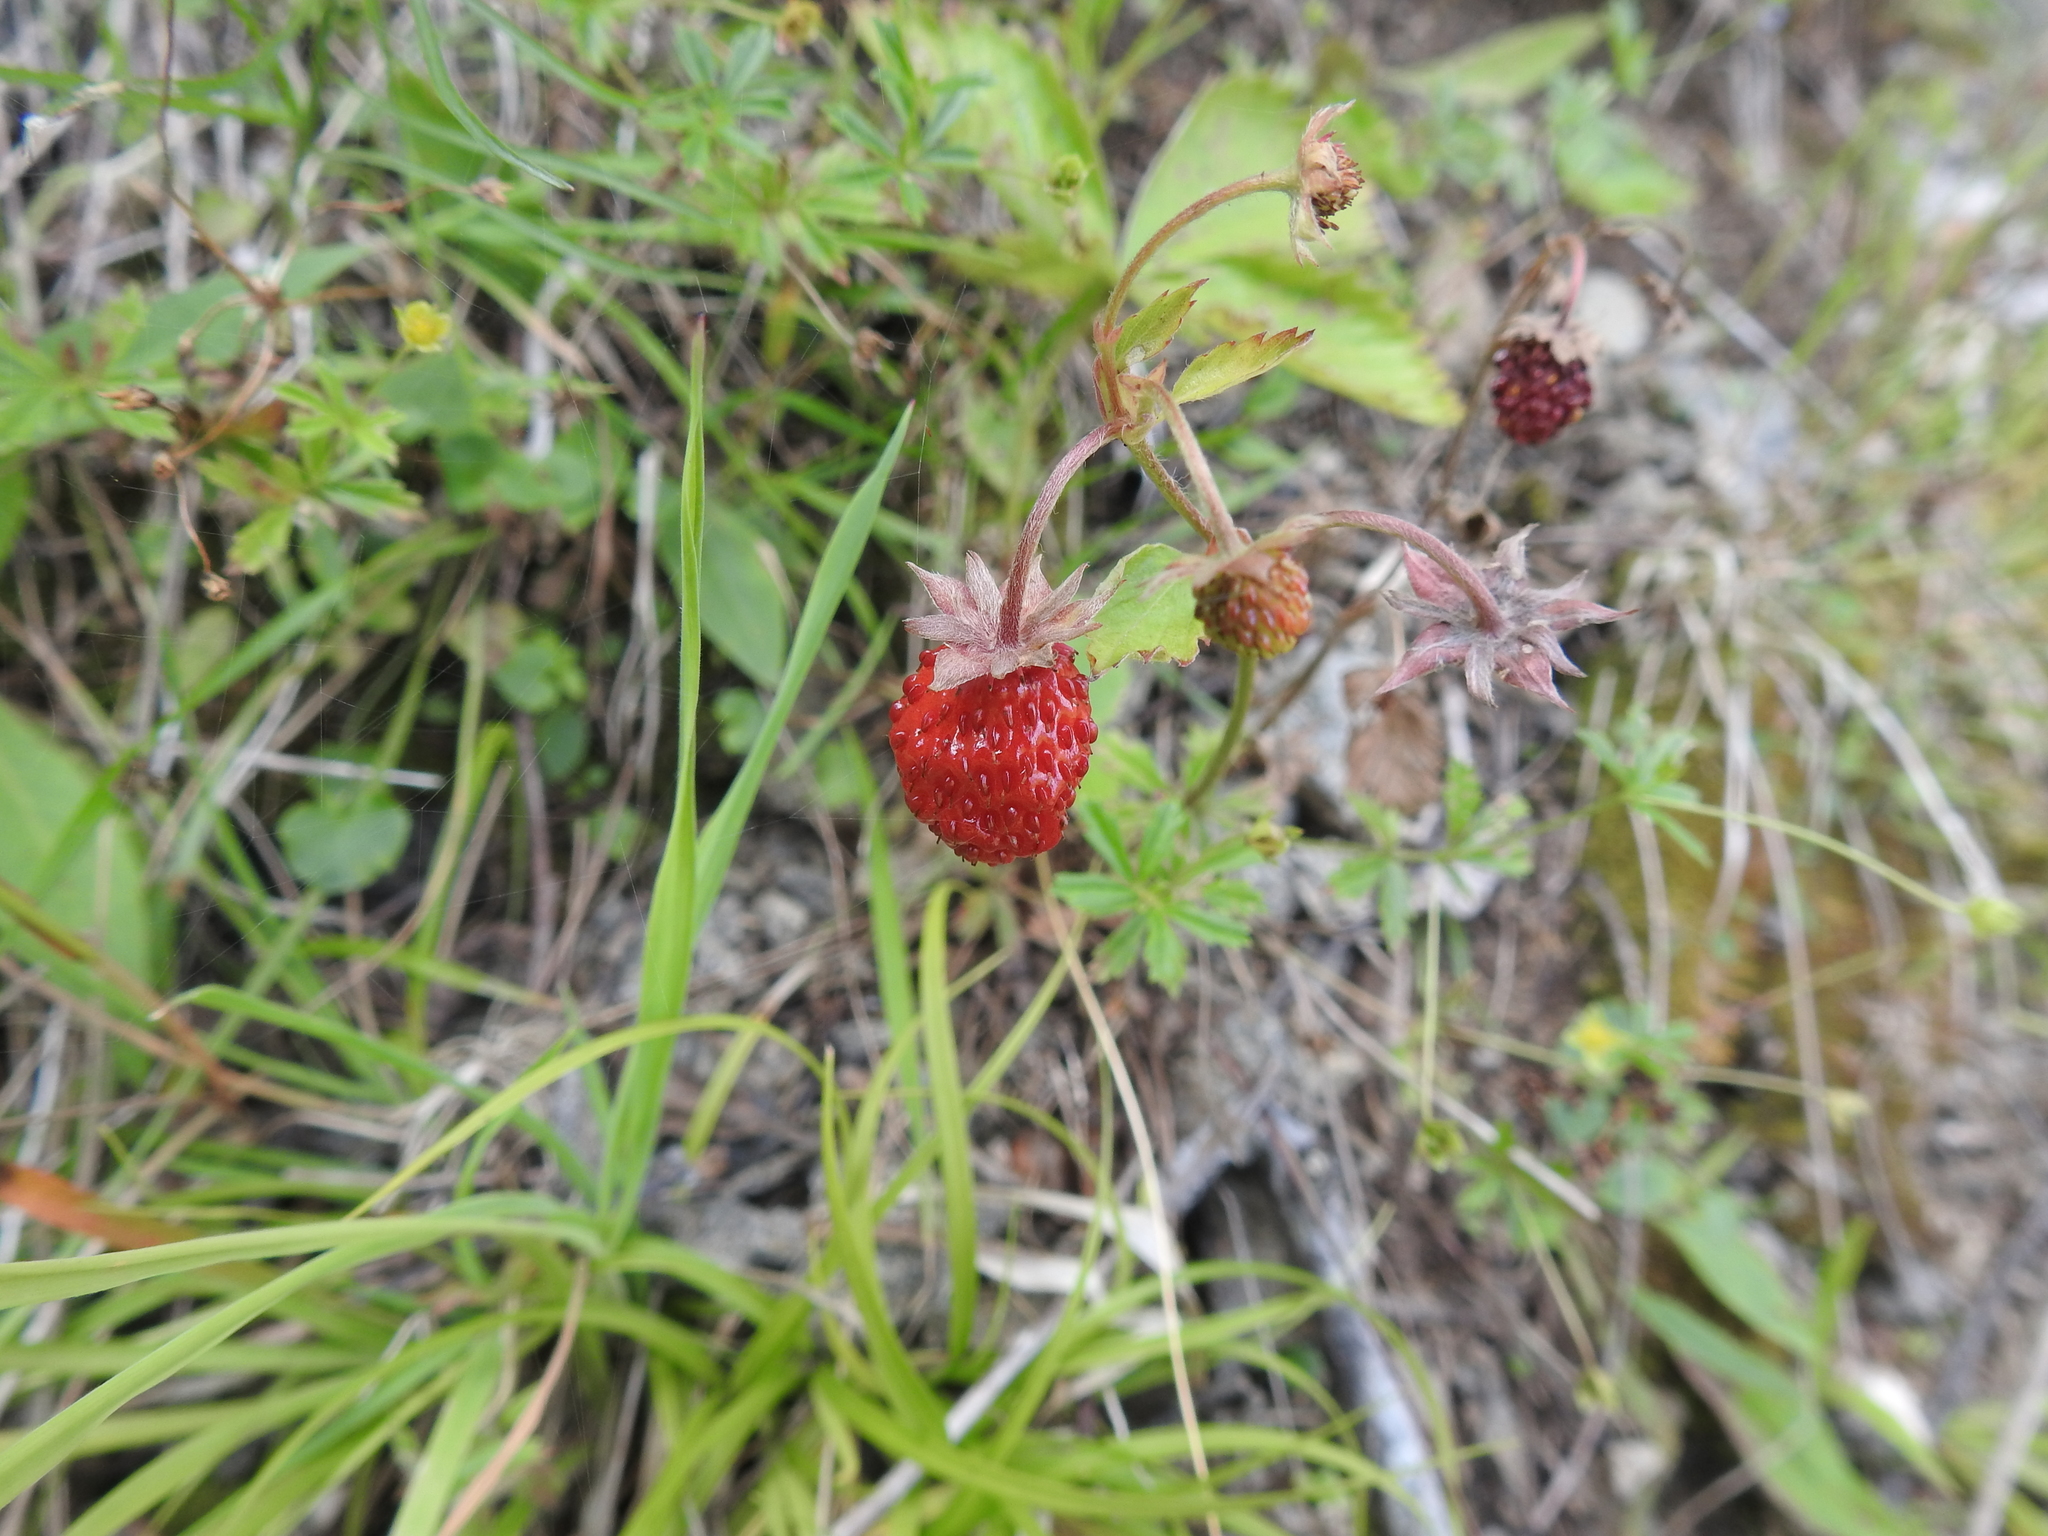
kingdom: Plantae
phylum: Tracheophyta
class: Magnoliopsida
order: Rosales
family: Rosaceae
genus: Fragaria
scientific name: Fragaria vesca
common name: Wild strawberry
